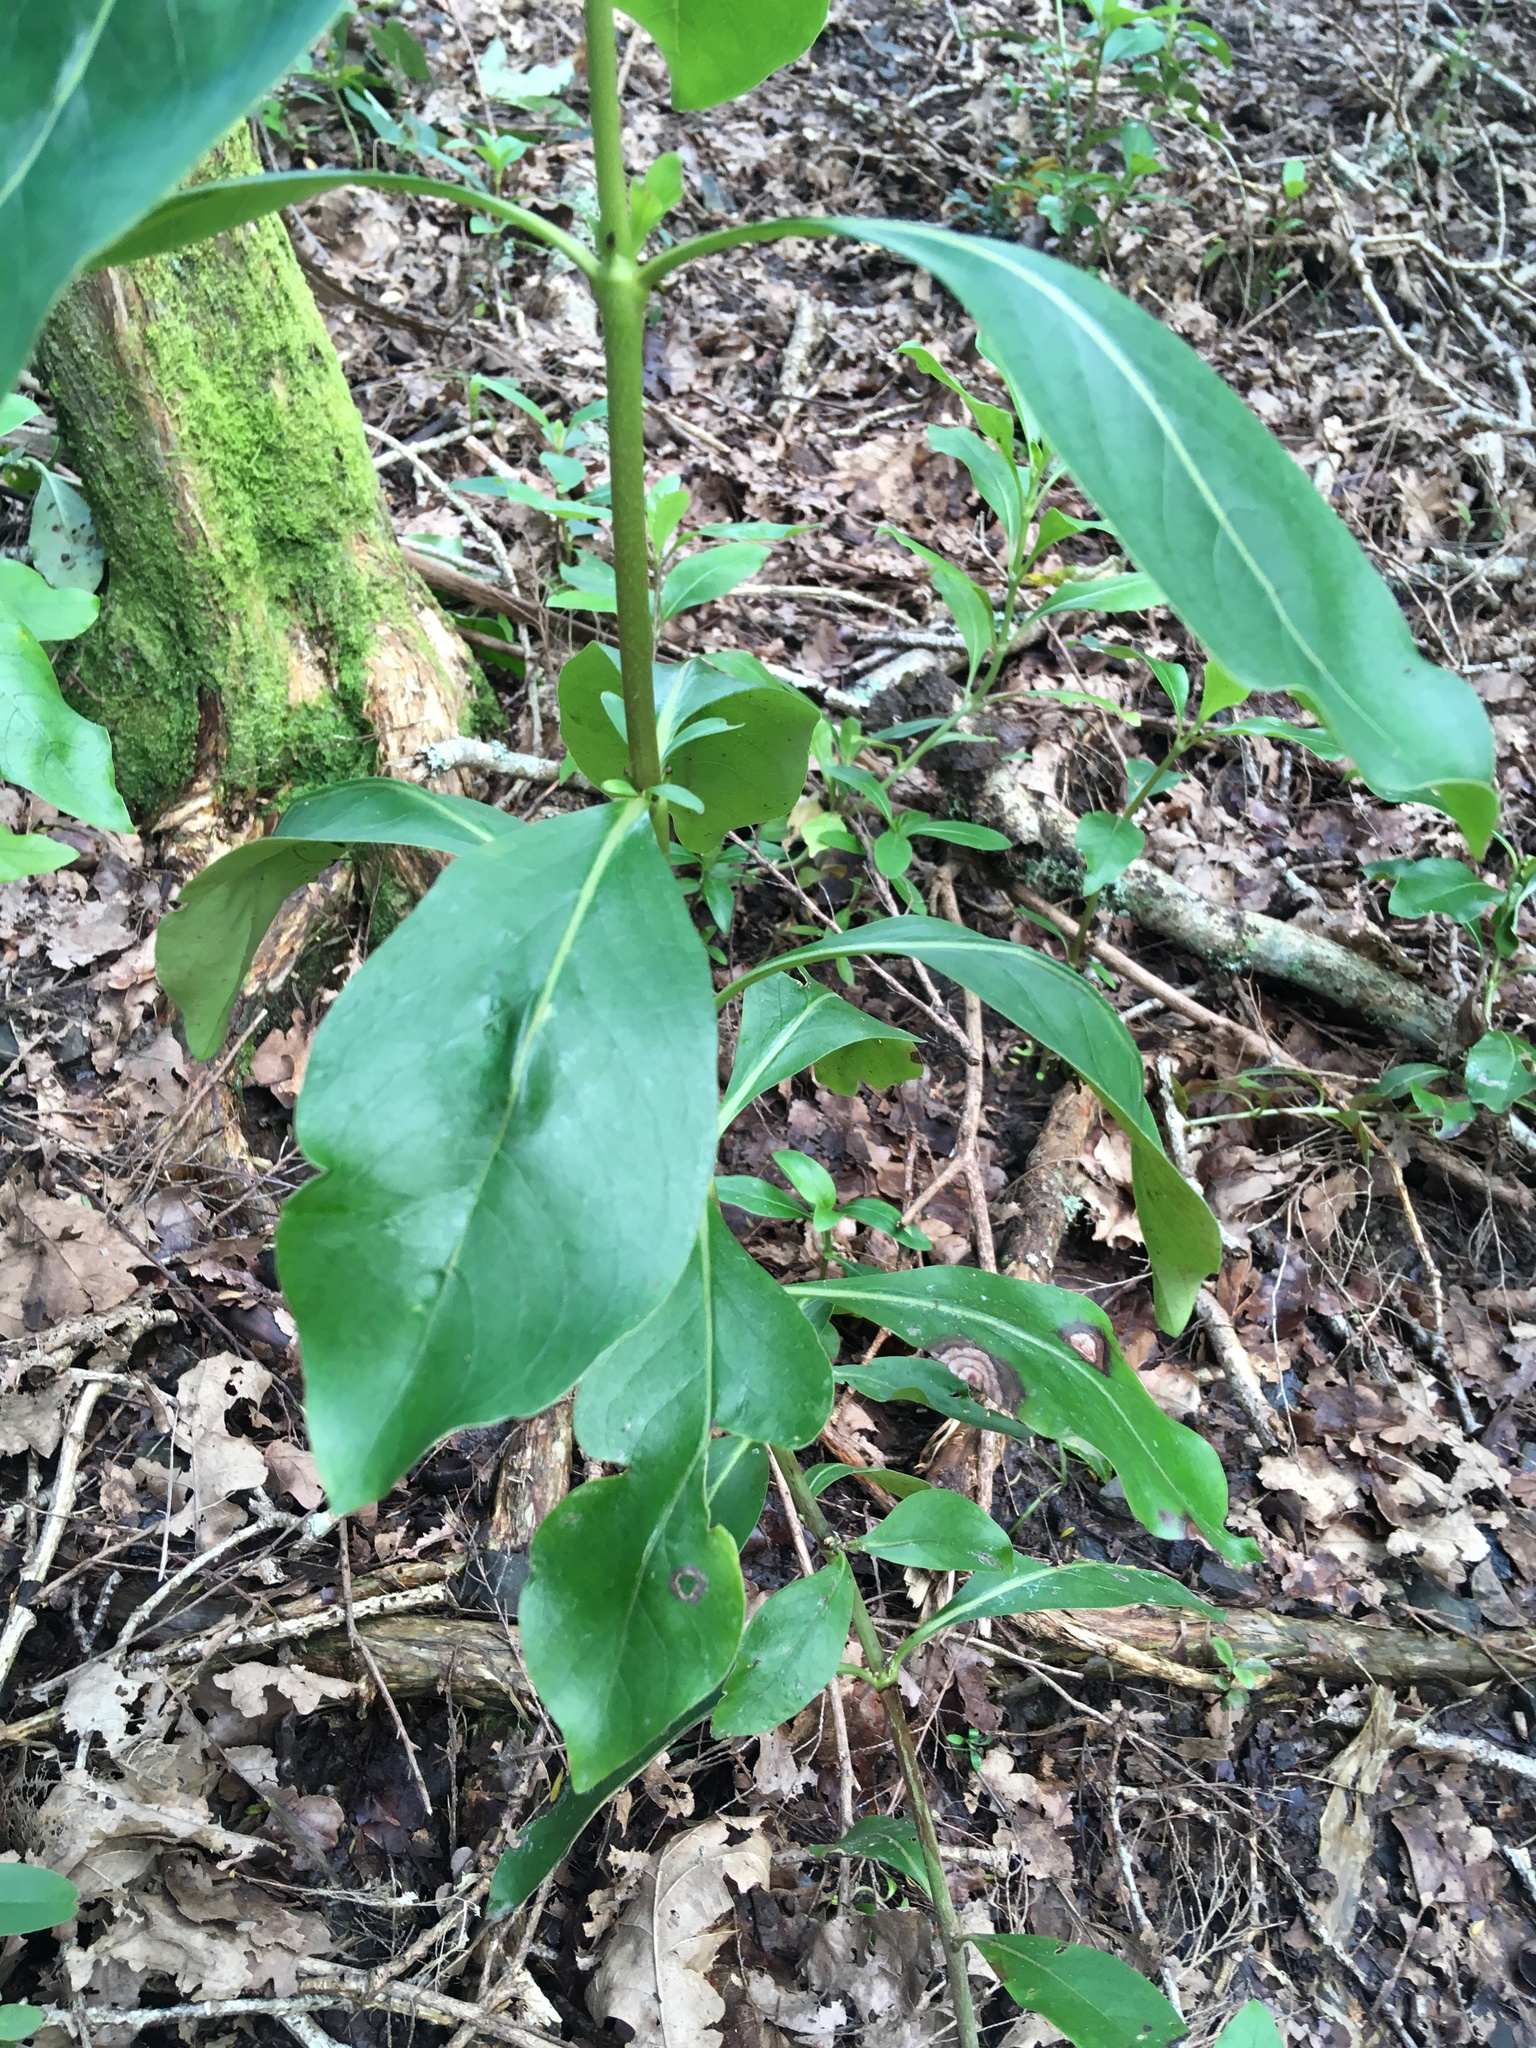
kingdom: Plantae
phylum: Tracheophyta
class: Magnoliopsida
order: Gentianales
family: Rubiaceae
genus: Coprosma
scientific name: Coprosma robusta
